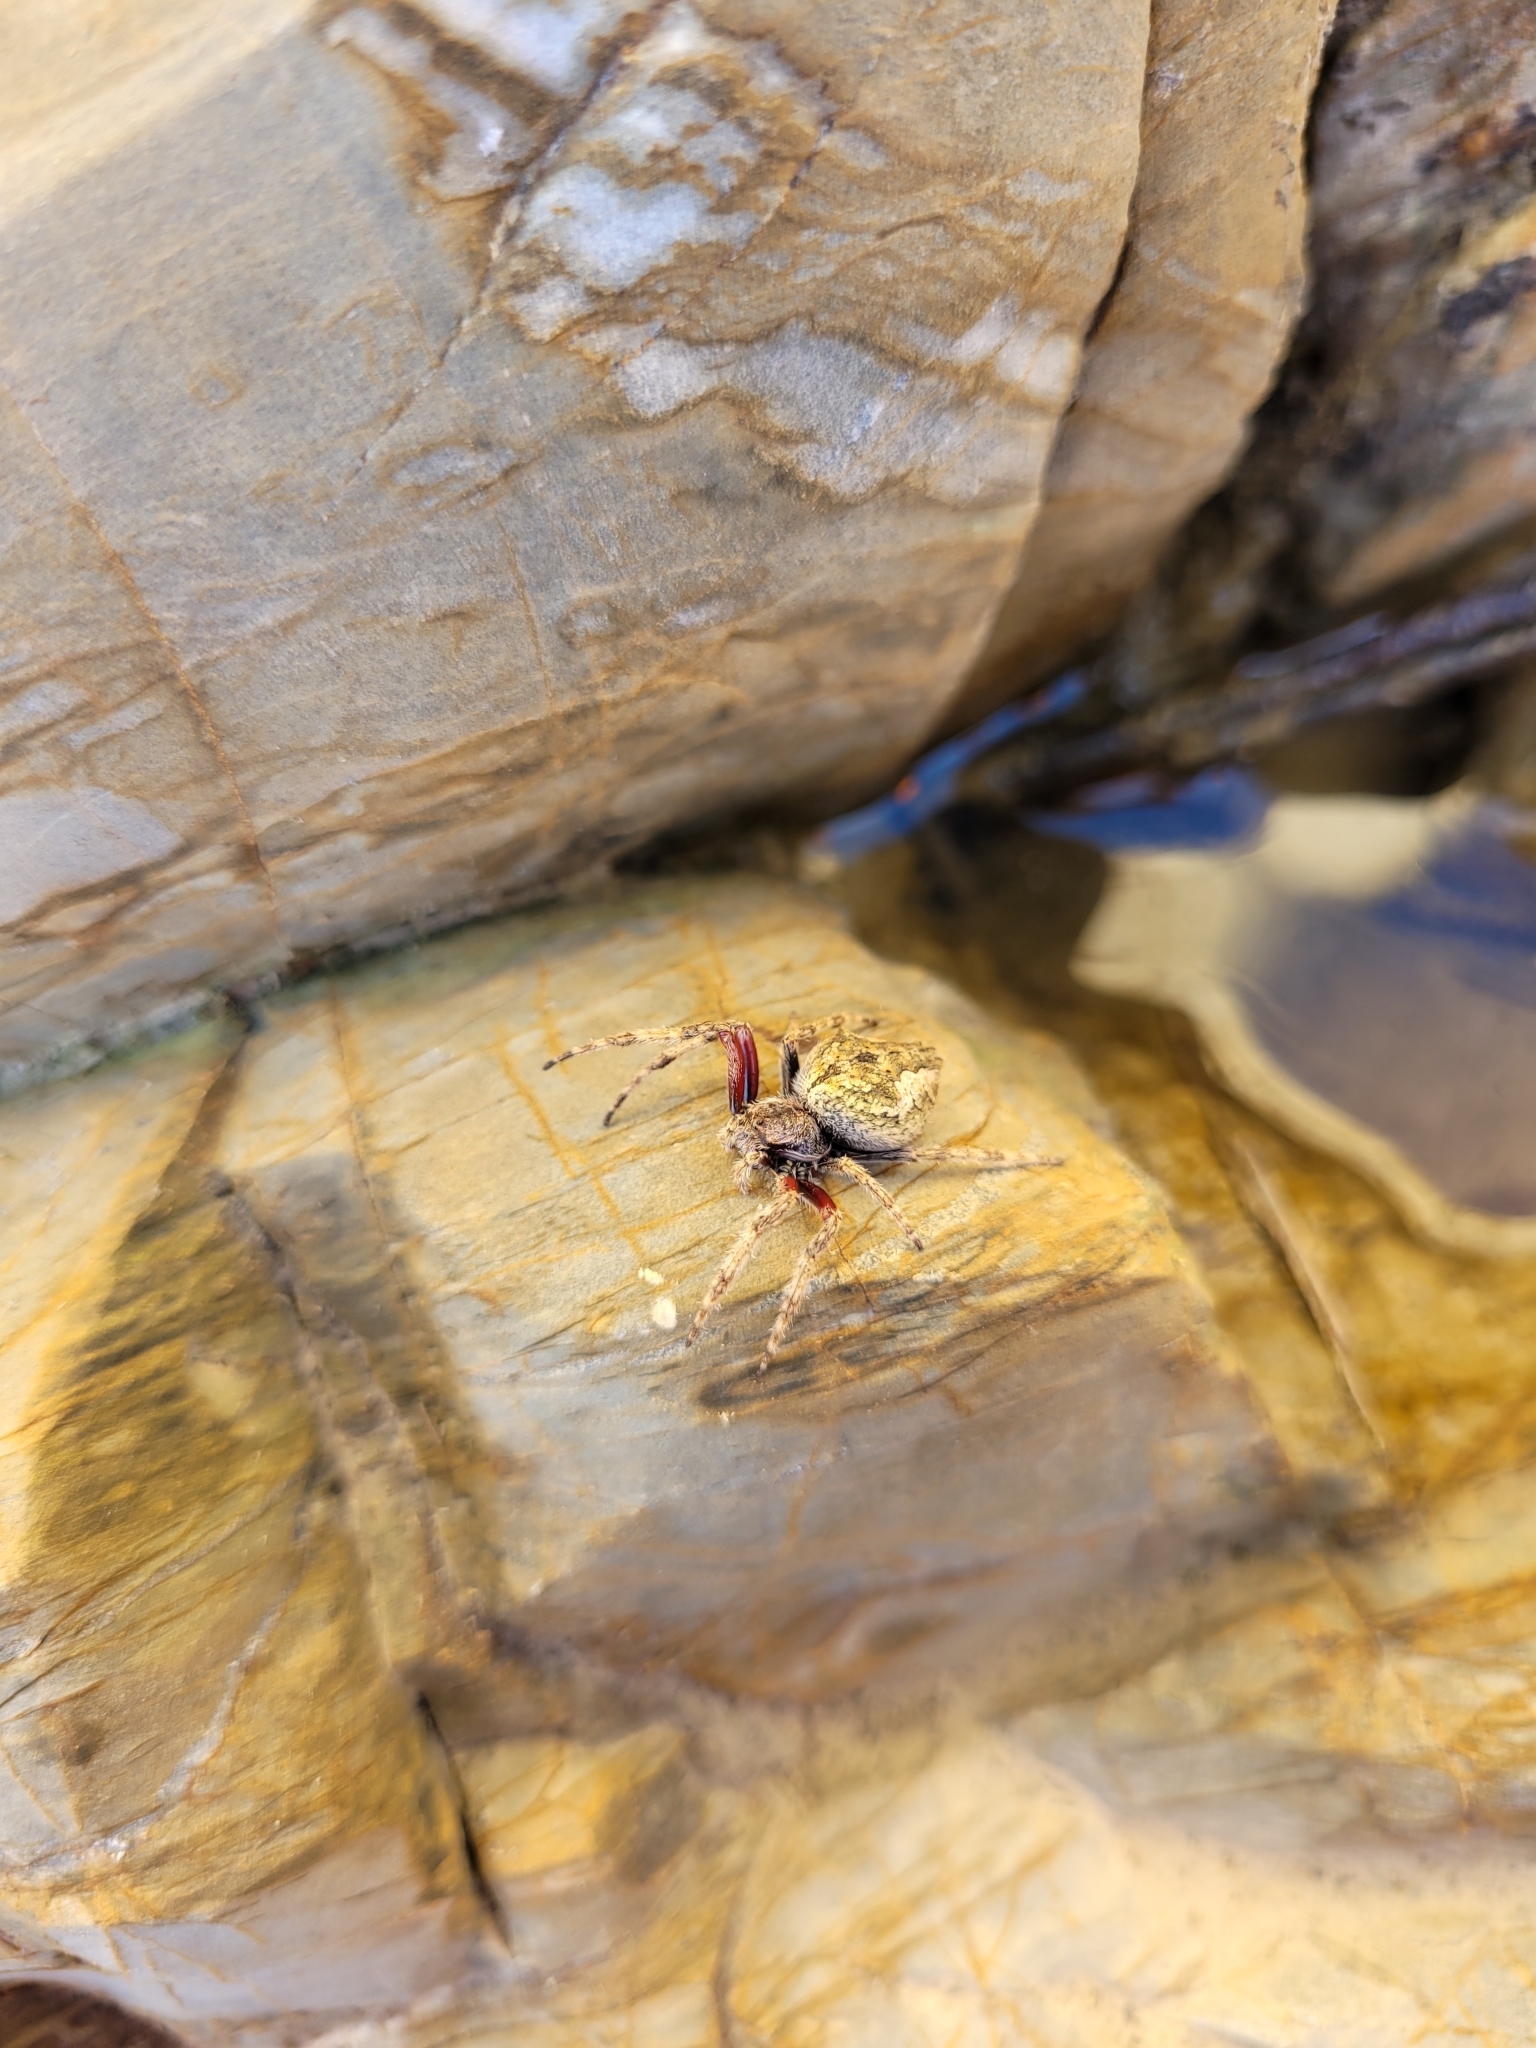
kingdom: Animalia
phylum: Arthropoda
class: Arachnida
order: Araneae
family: Araneidae
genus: Eriophora
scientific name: Eriophora pustulosa
